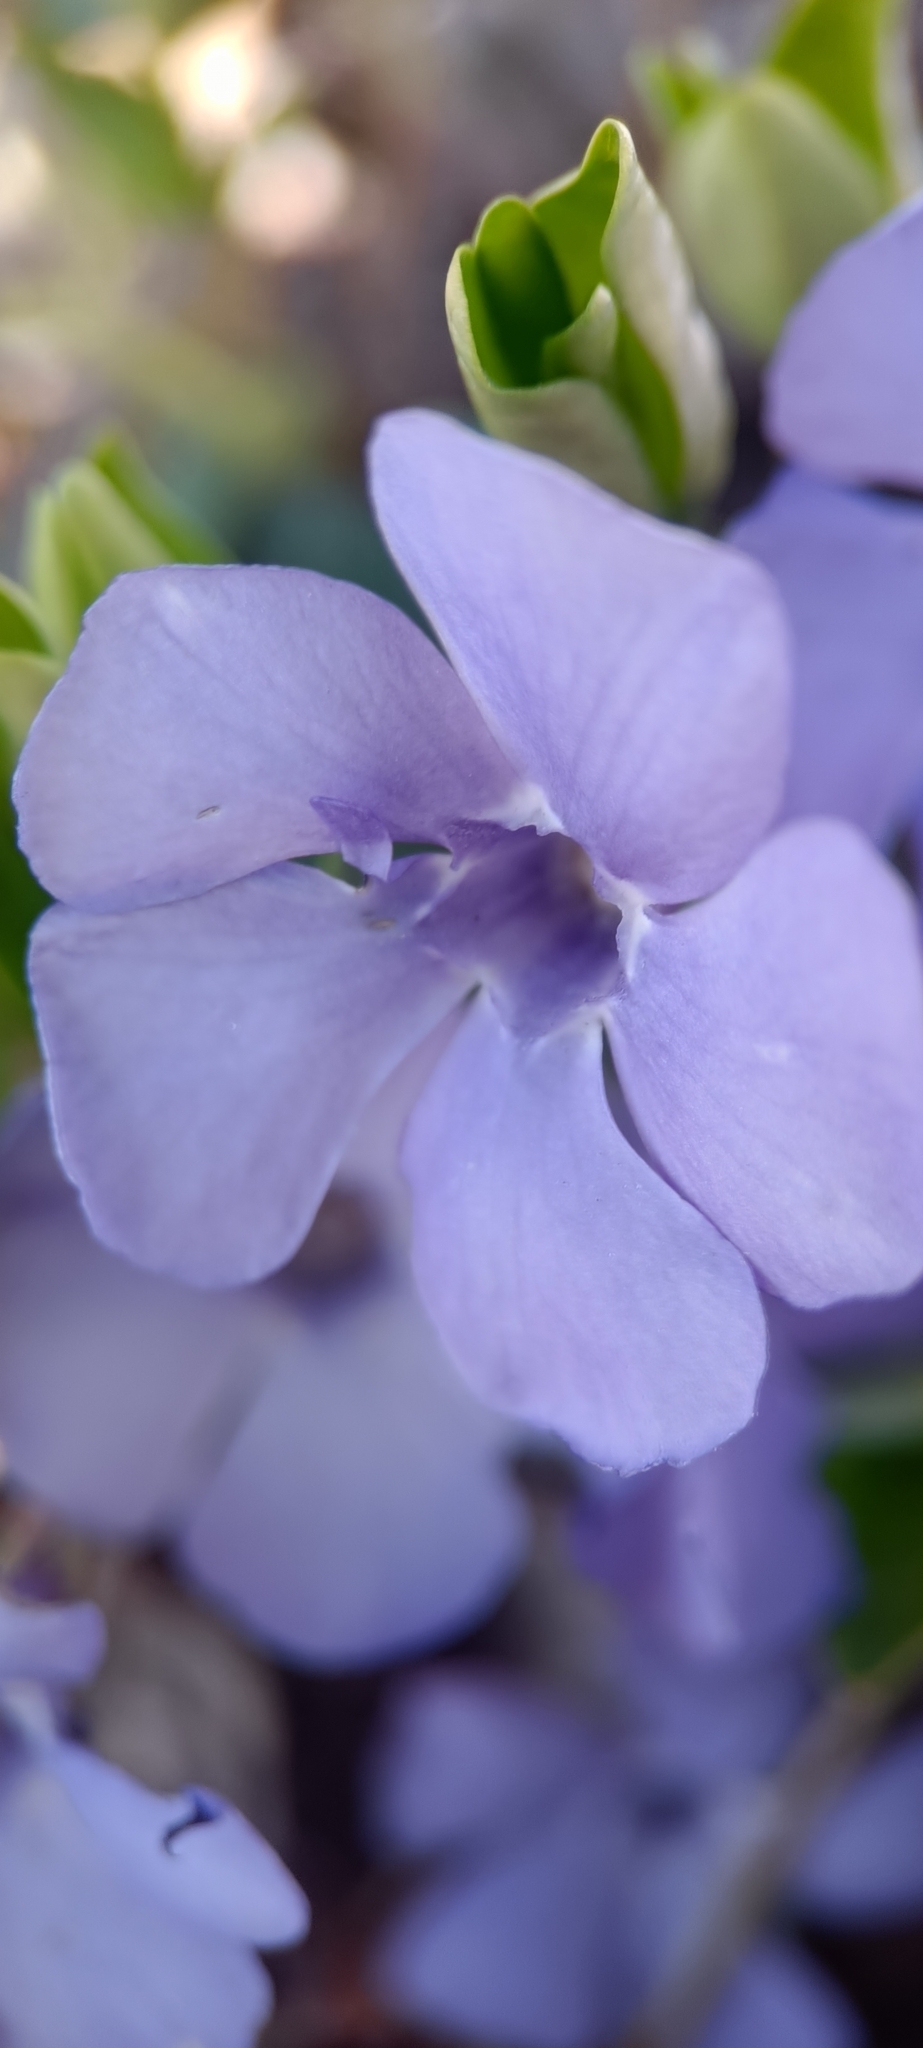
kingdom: Plantae
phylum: Tracheophyta
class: Magnoliopsida
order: Gentianales
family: Apocynaceae
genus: Vinca
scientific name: Vinca minor
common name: Lesser periwinkle
